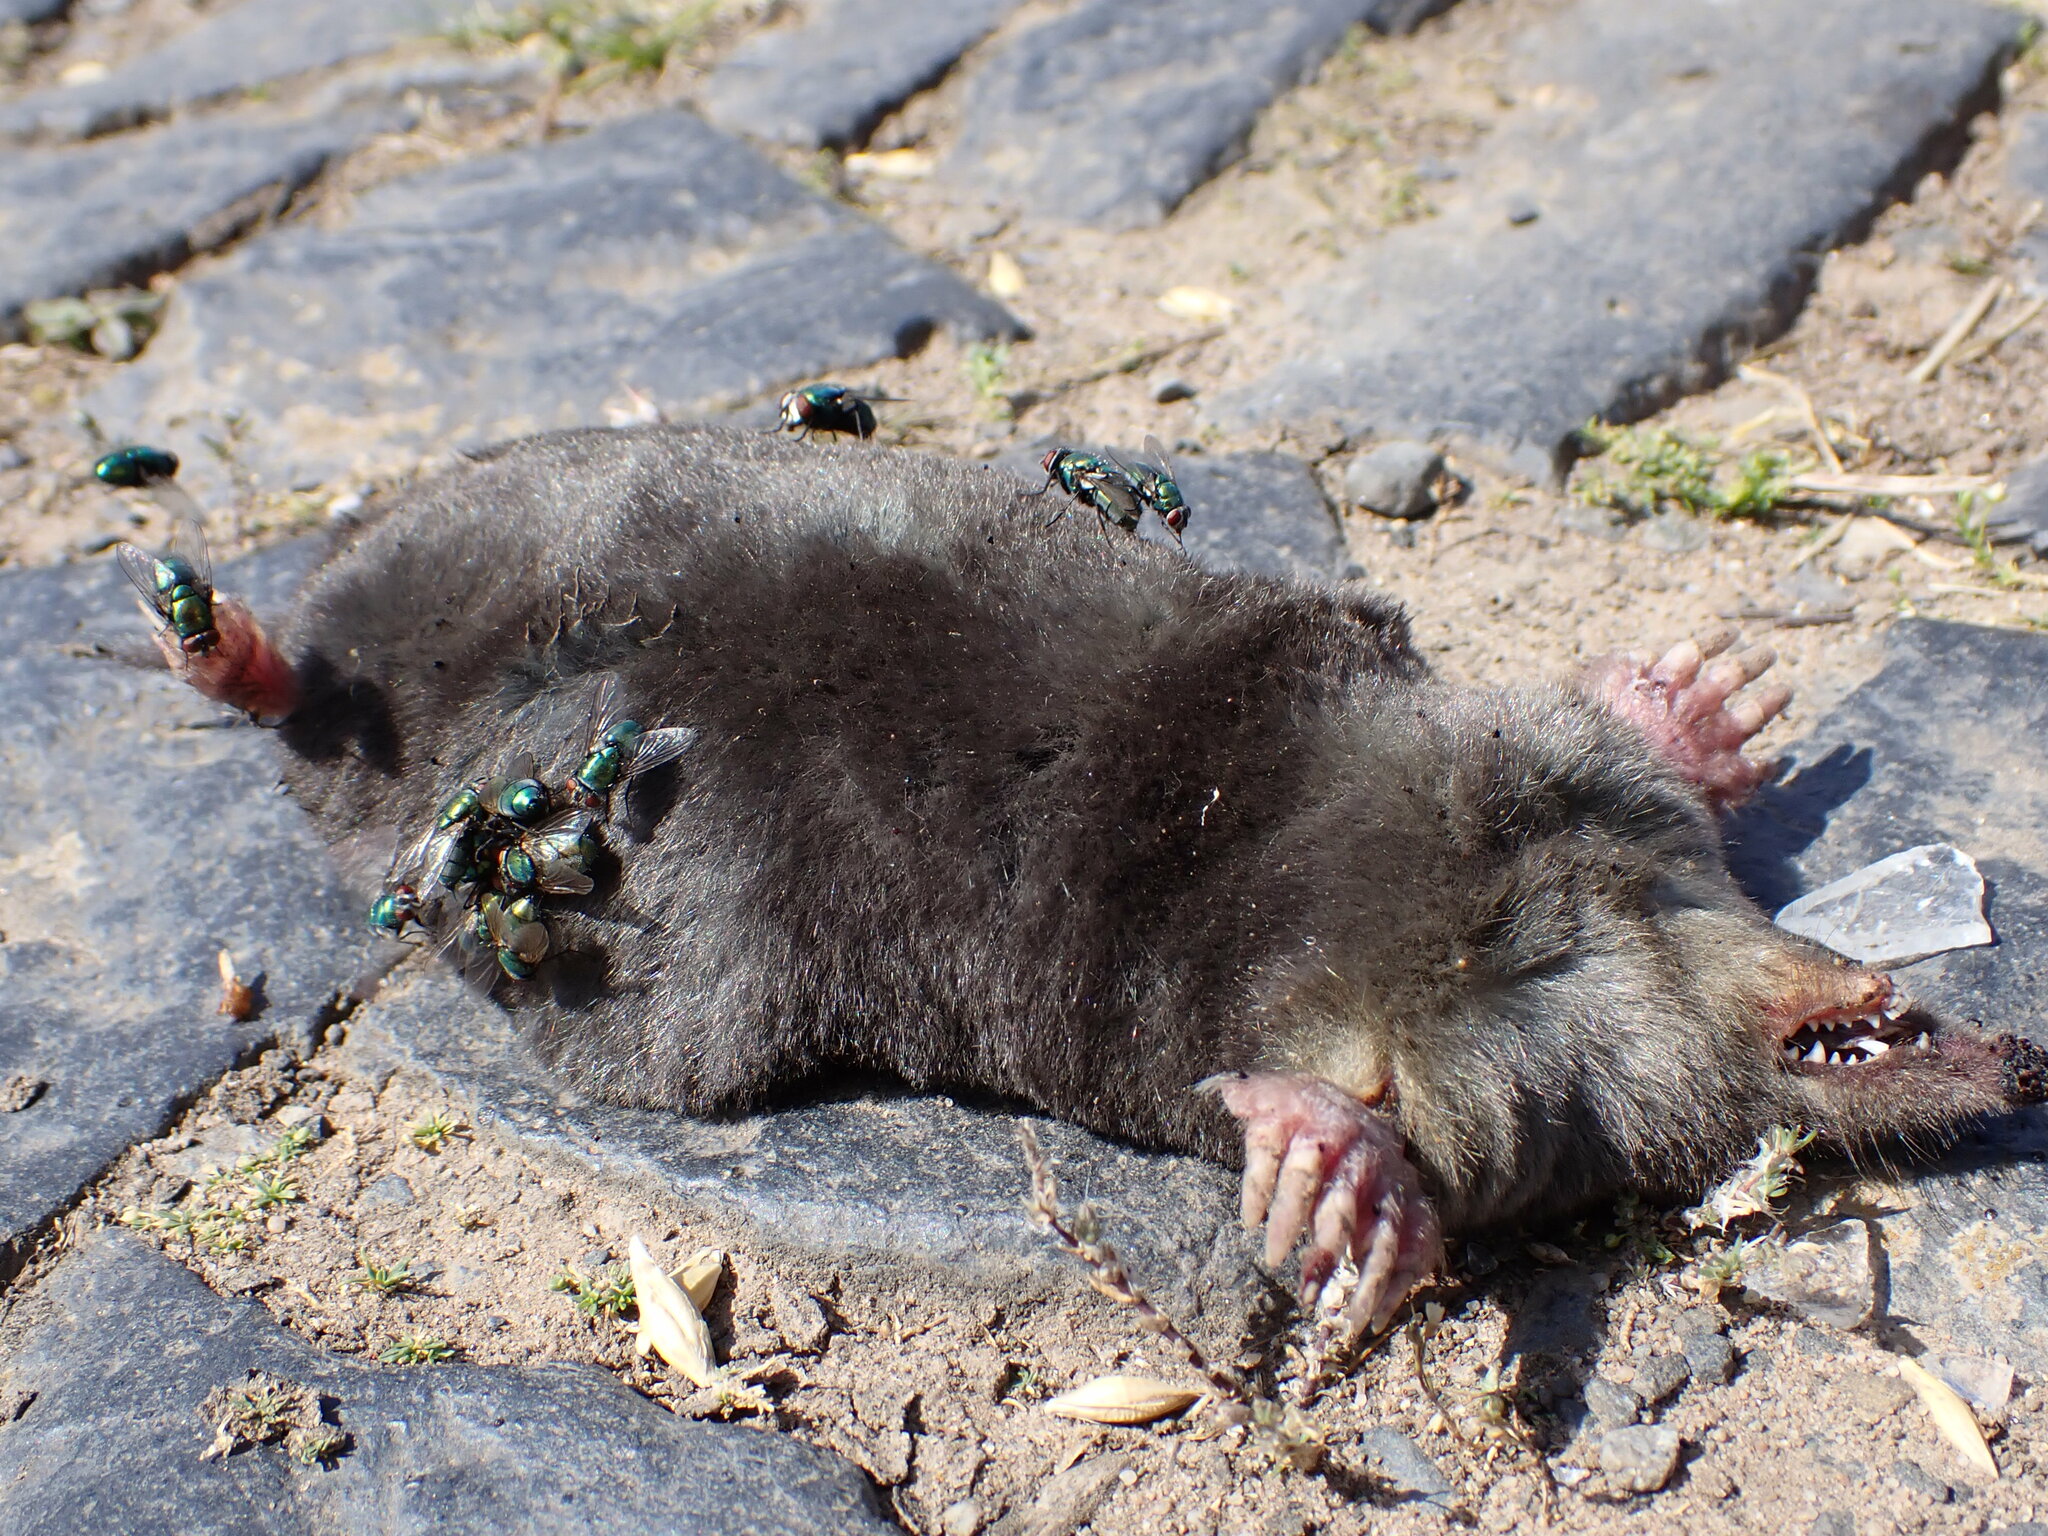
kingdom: Animalia
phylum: Chordata
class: Mammalia
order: Soricomorpha
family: Talpidae
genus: Talpa
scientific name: Talpa europaea
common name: European mole
